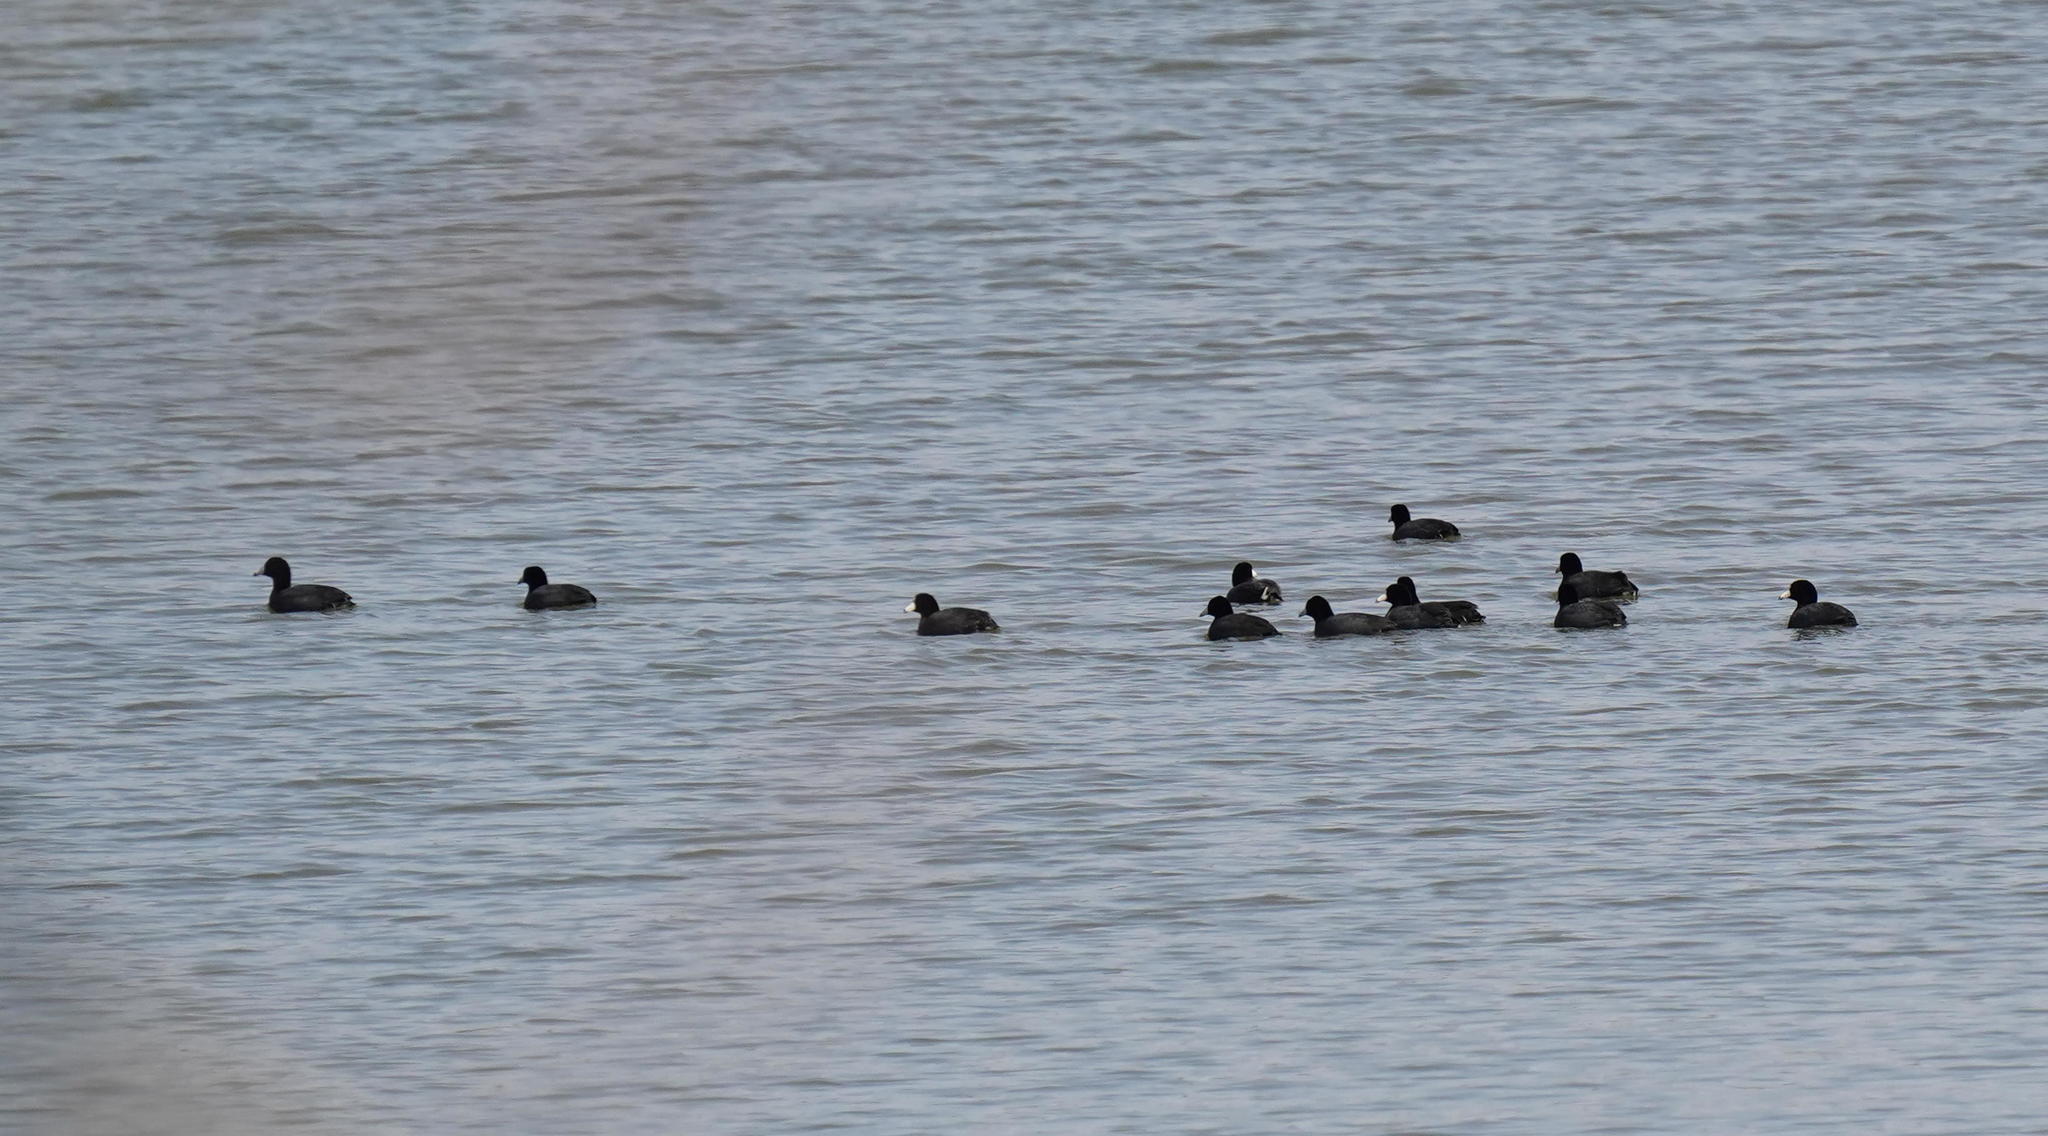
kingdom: Animalia
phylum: Chordata
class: Aves
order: Gruiformes
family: Rallidae
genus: Fulica
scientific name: Fulica americana
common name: American coot
